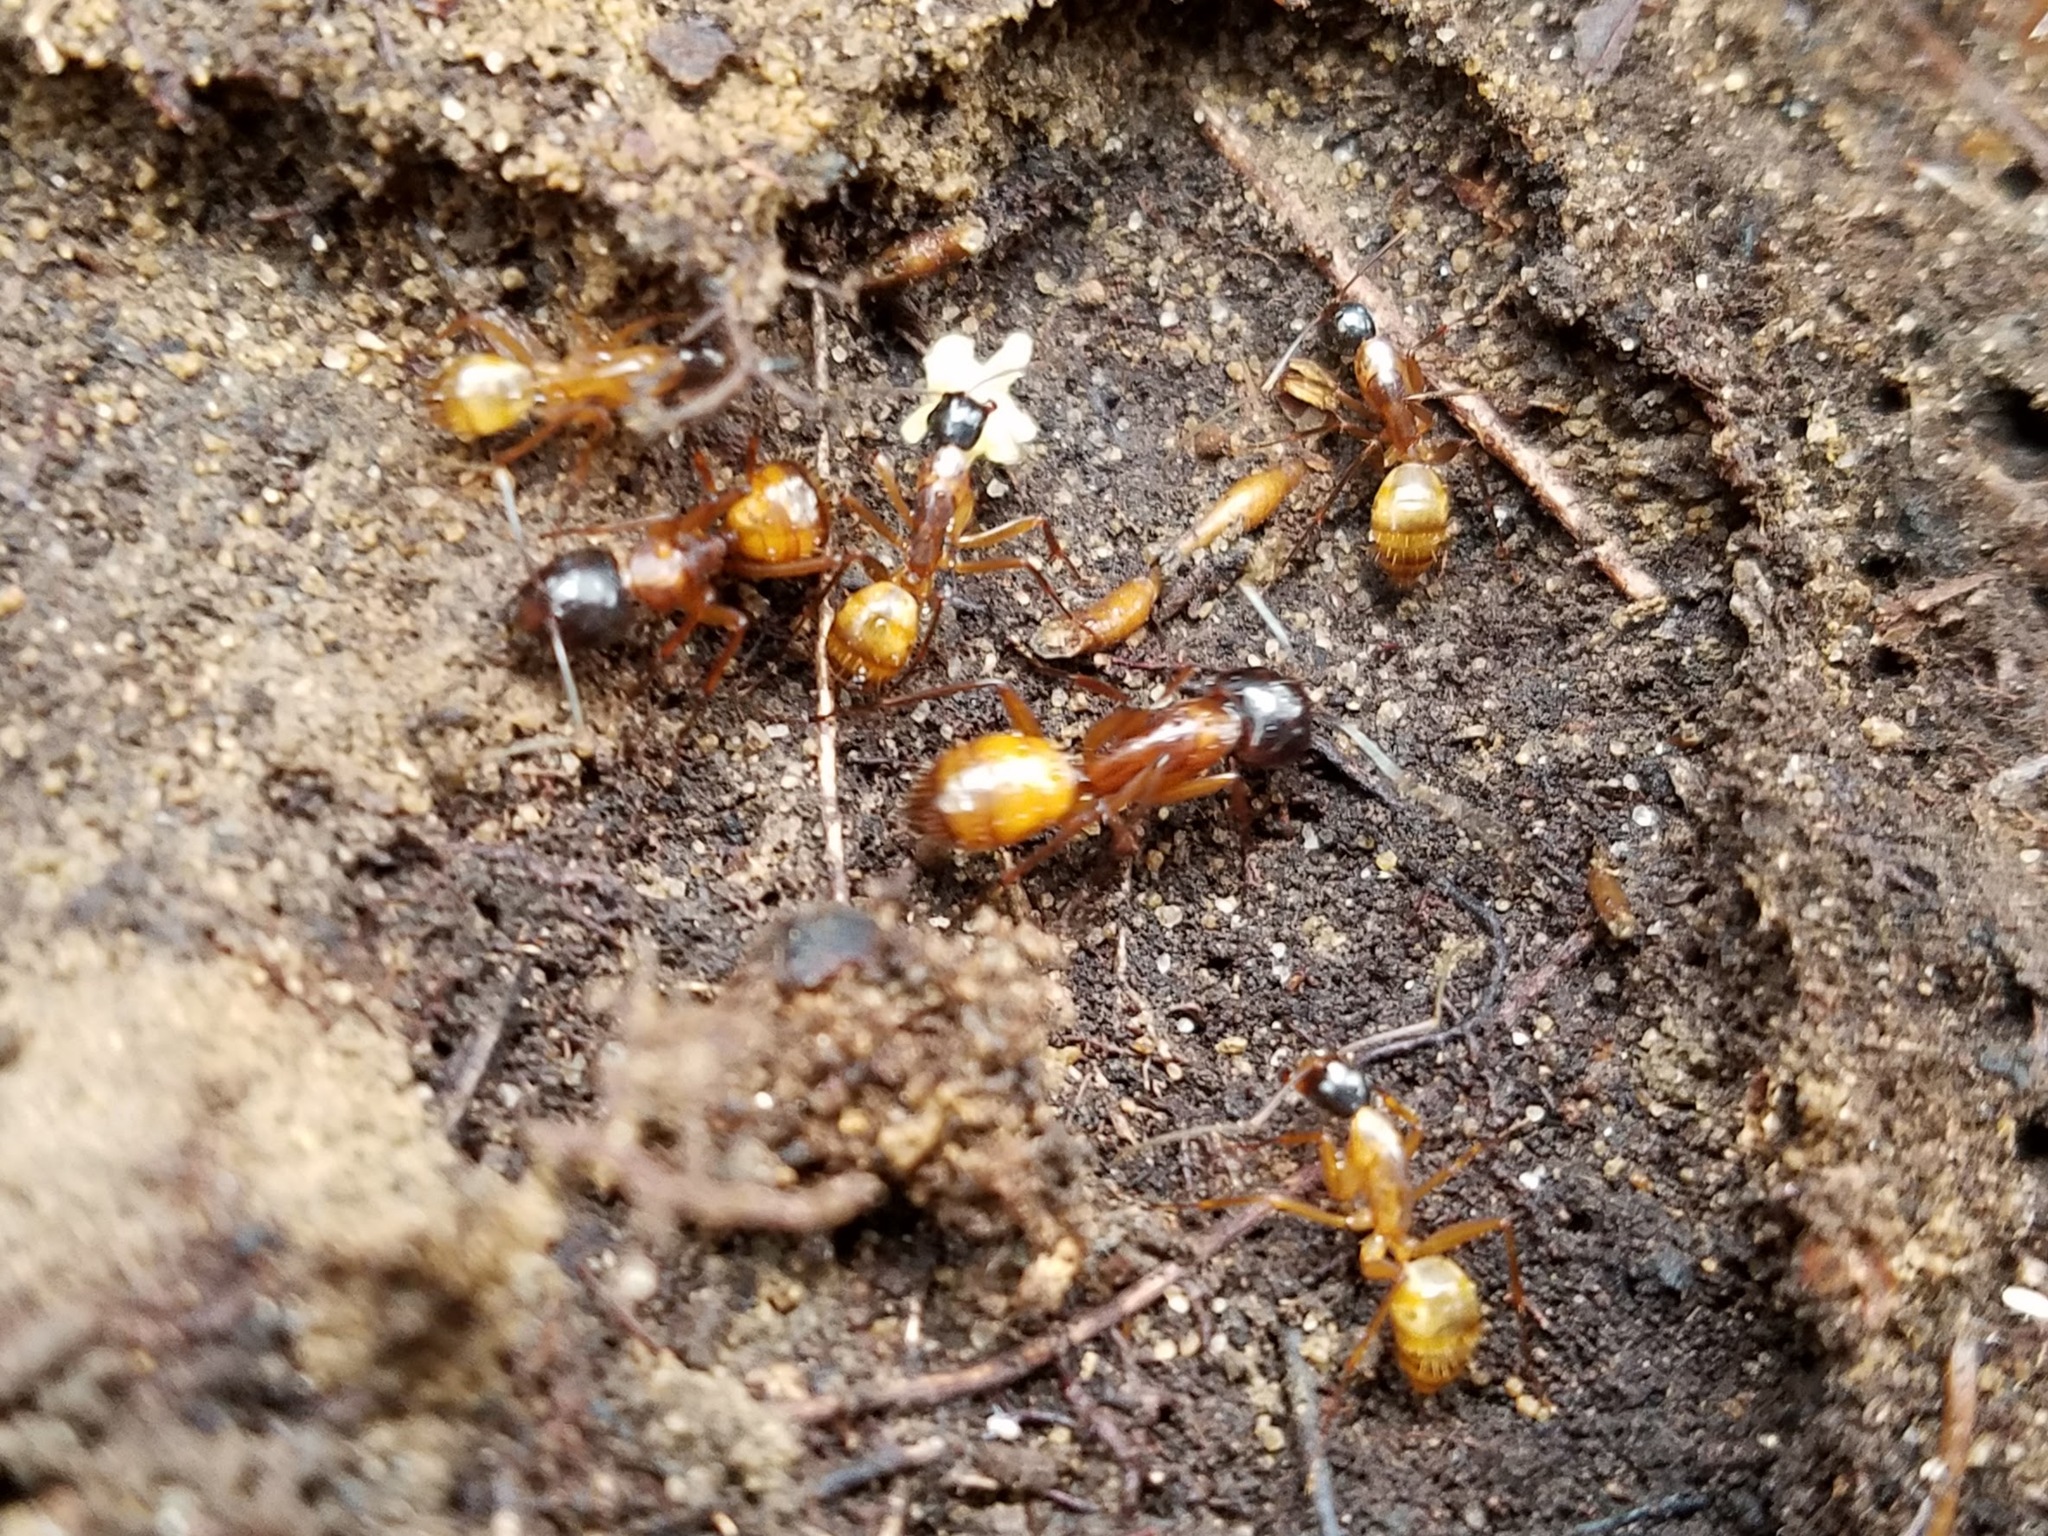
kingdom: Animalia
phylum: Arthropoda
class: Insecta
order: Hymenoptera
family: Formicidae
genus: Camponotus
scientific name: Camponotus americanus
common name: American carpenter ant
